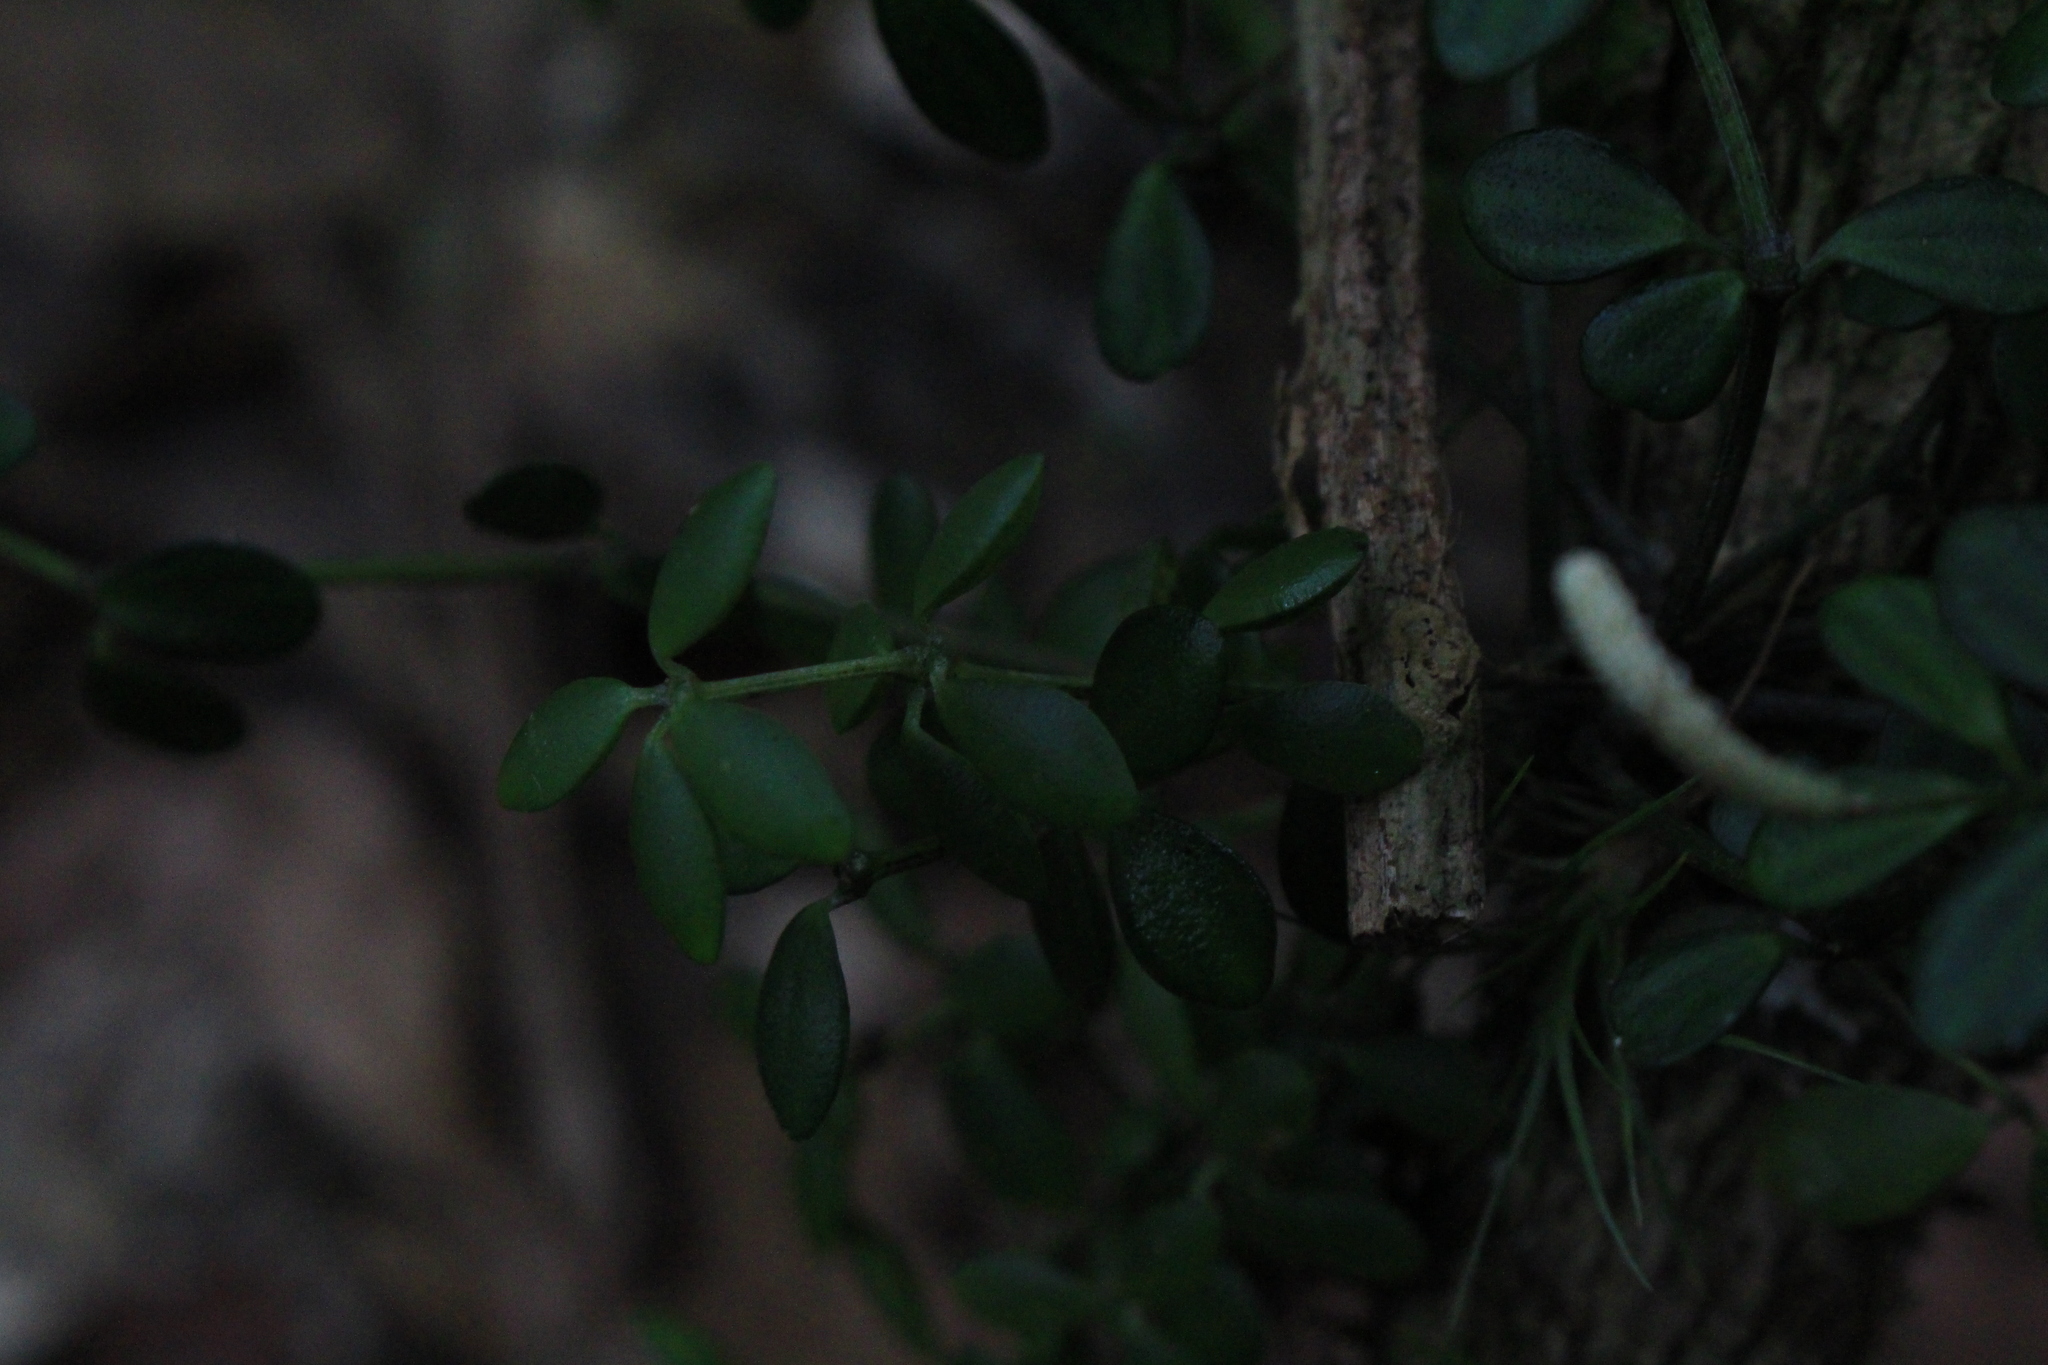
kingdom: Plantae
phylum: Tracheophyta
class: Magnoliopsida
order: Piperales
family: Piperaceae
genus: Peperomia
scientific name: Peperomia tetraphylla
